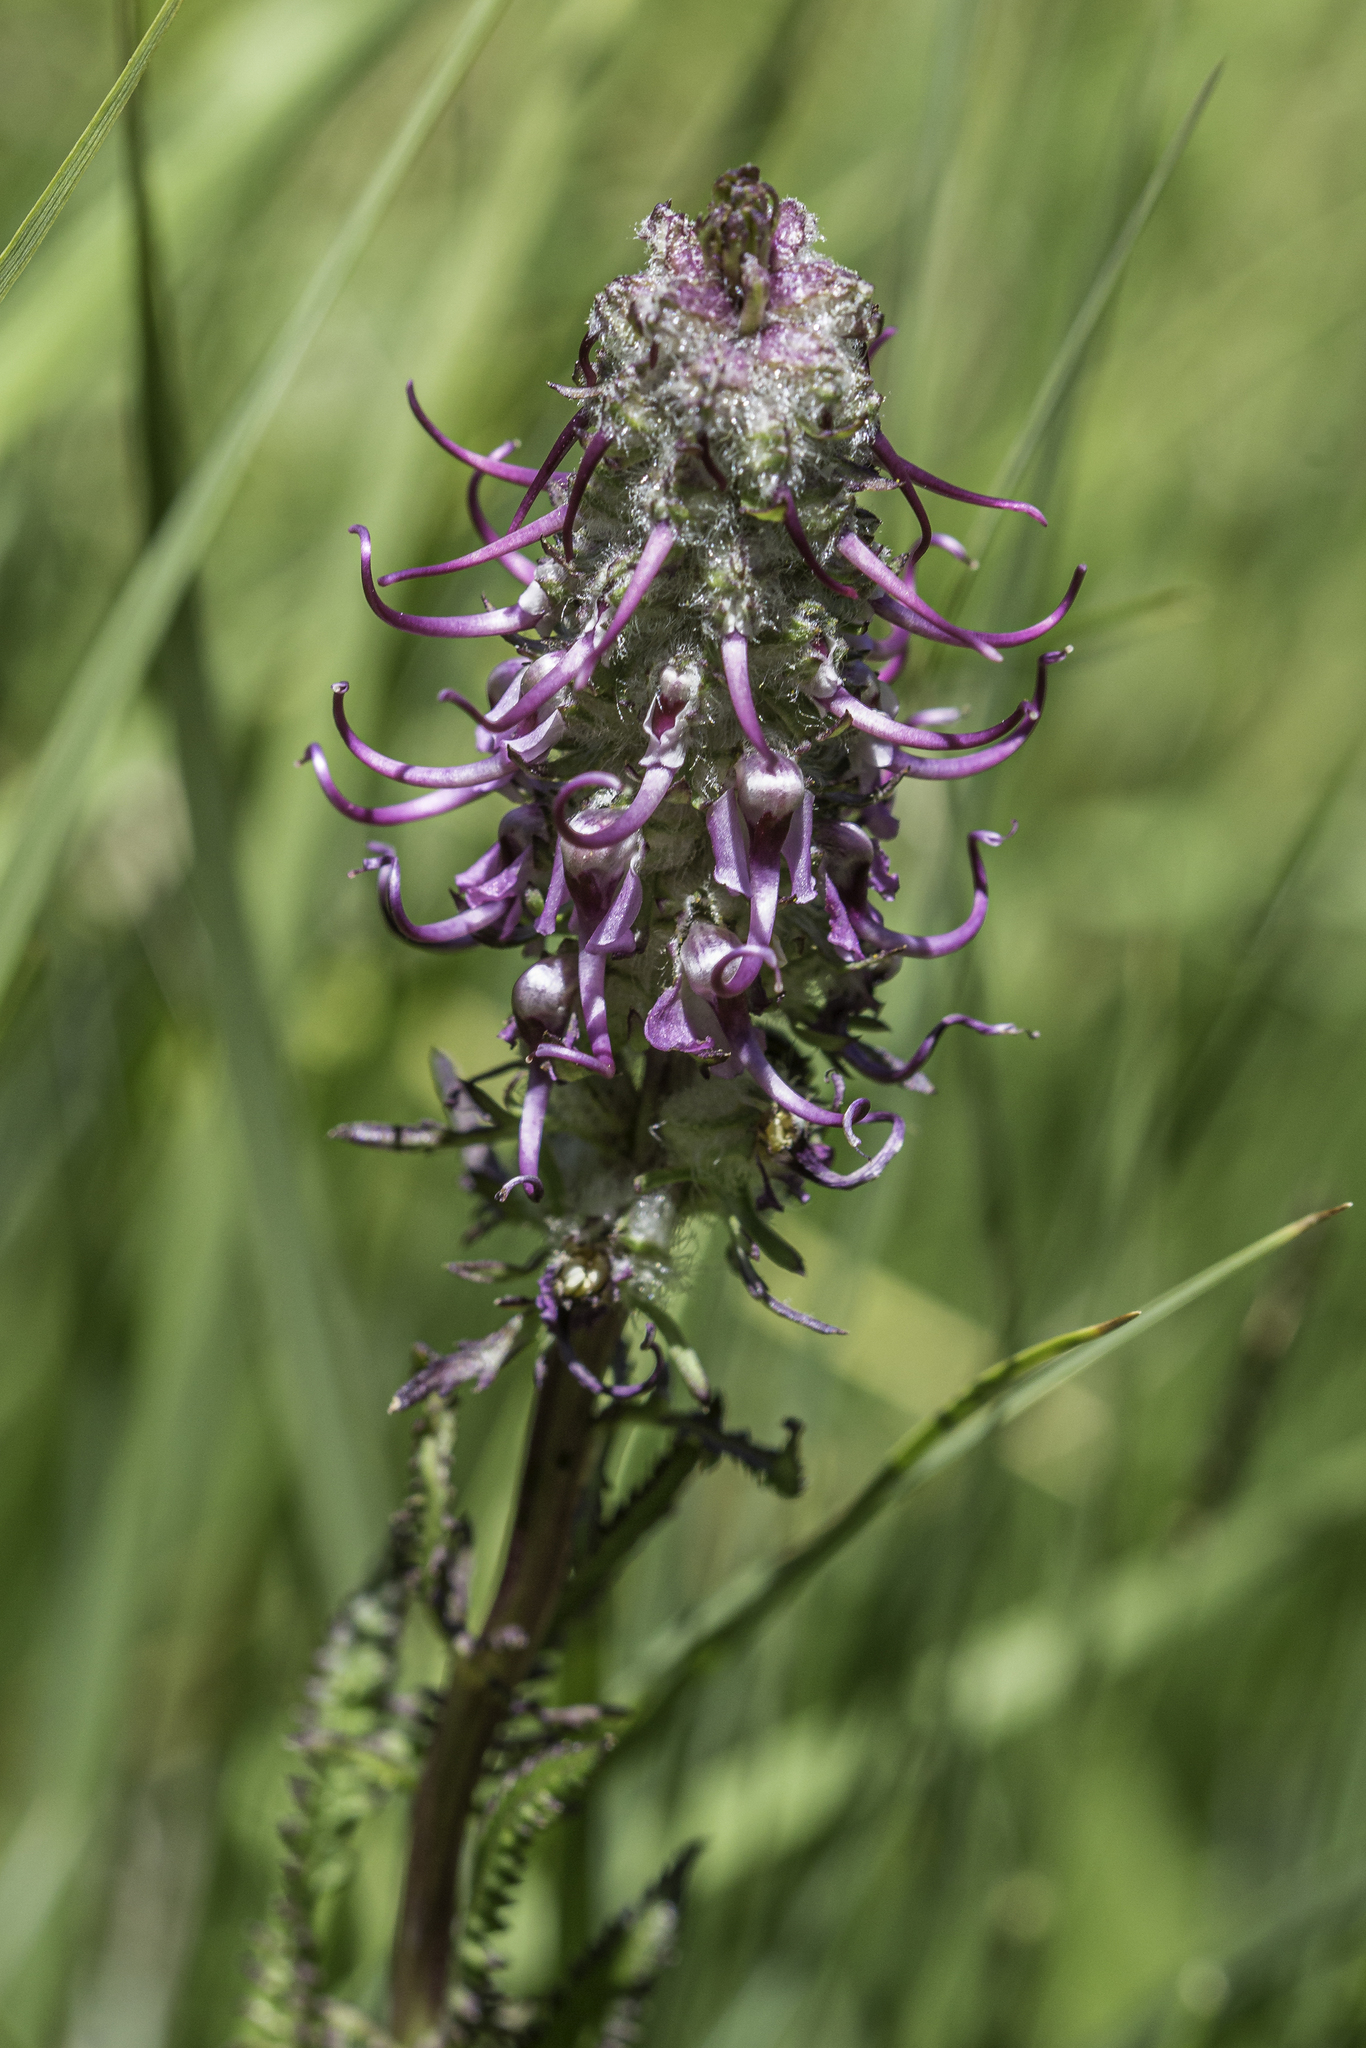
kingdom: Plantae
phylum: Tracheophyta
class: Magnoliopsida
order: Lamiales
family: Orobanchaceae
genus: Pedicularis
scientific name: Pedicularis groenlandica
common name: Elephant's-head
